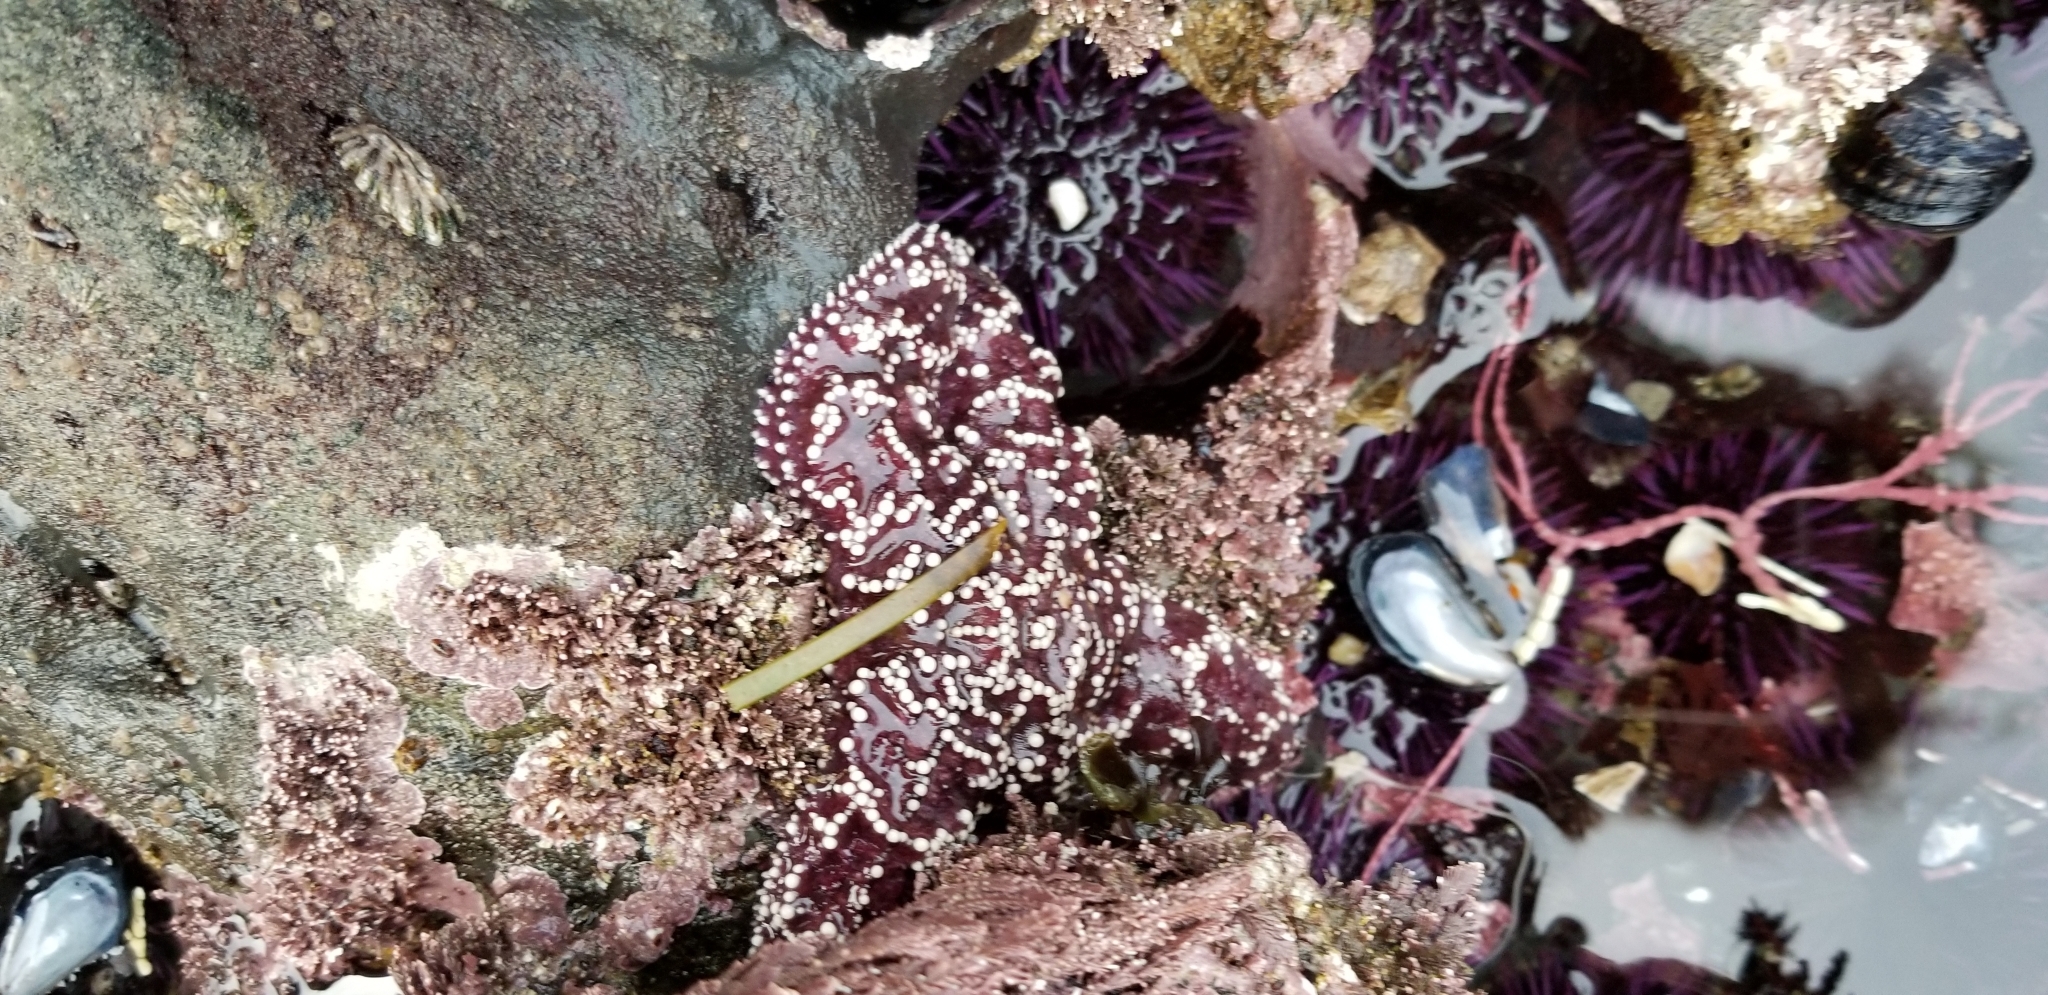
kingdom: Animalia
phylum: Echinodermata
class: Asteroidea
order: Forcipulatida
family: Asteriidae
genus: Pisaster
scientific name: Pisaster ochraceus
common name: Ochre stars
